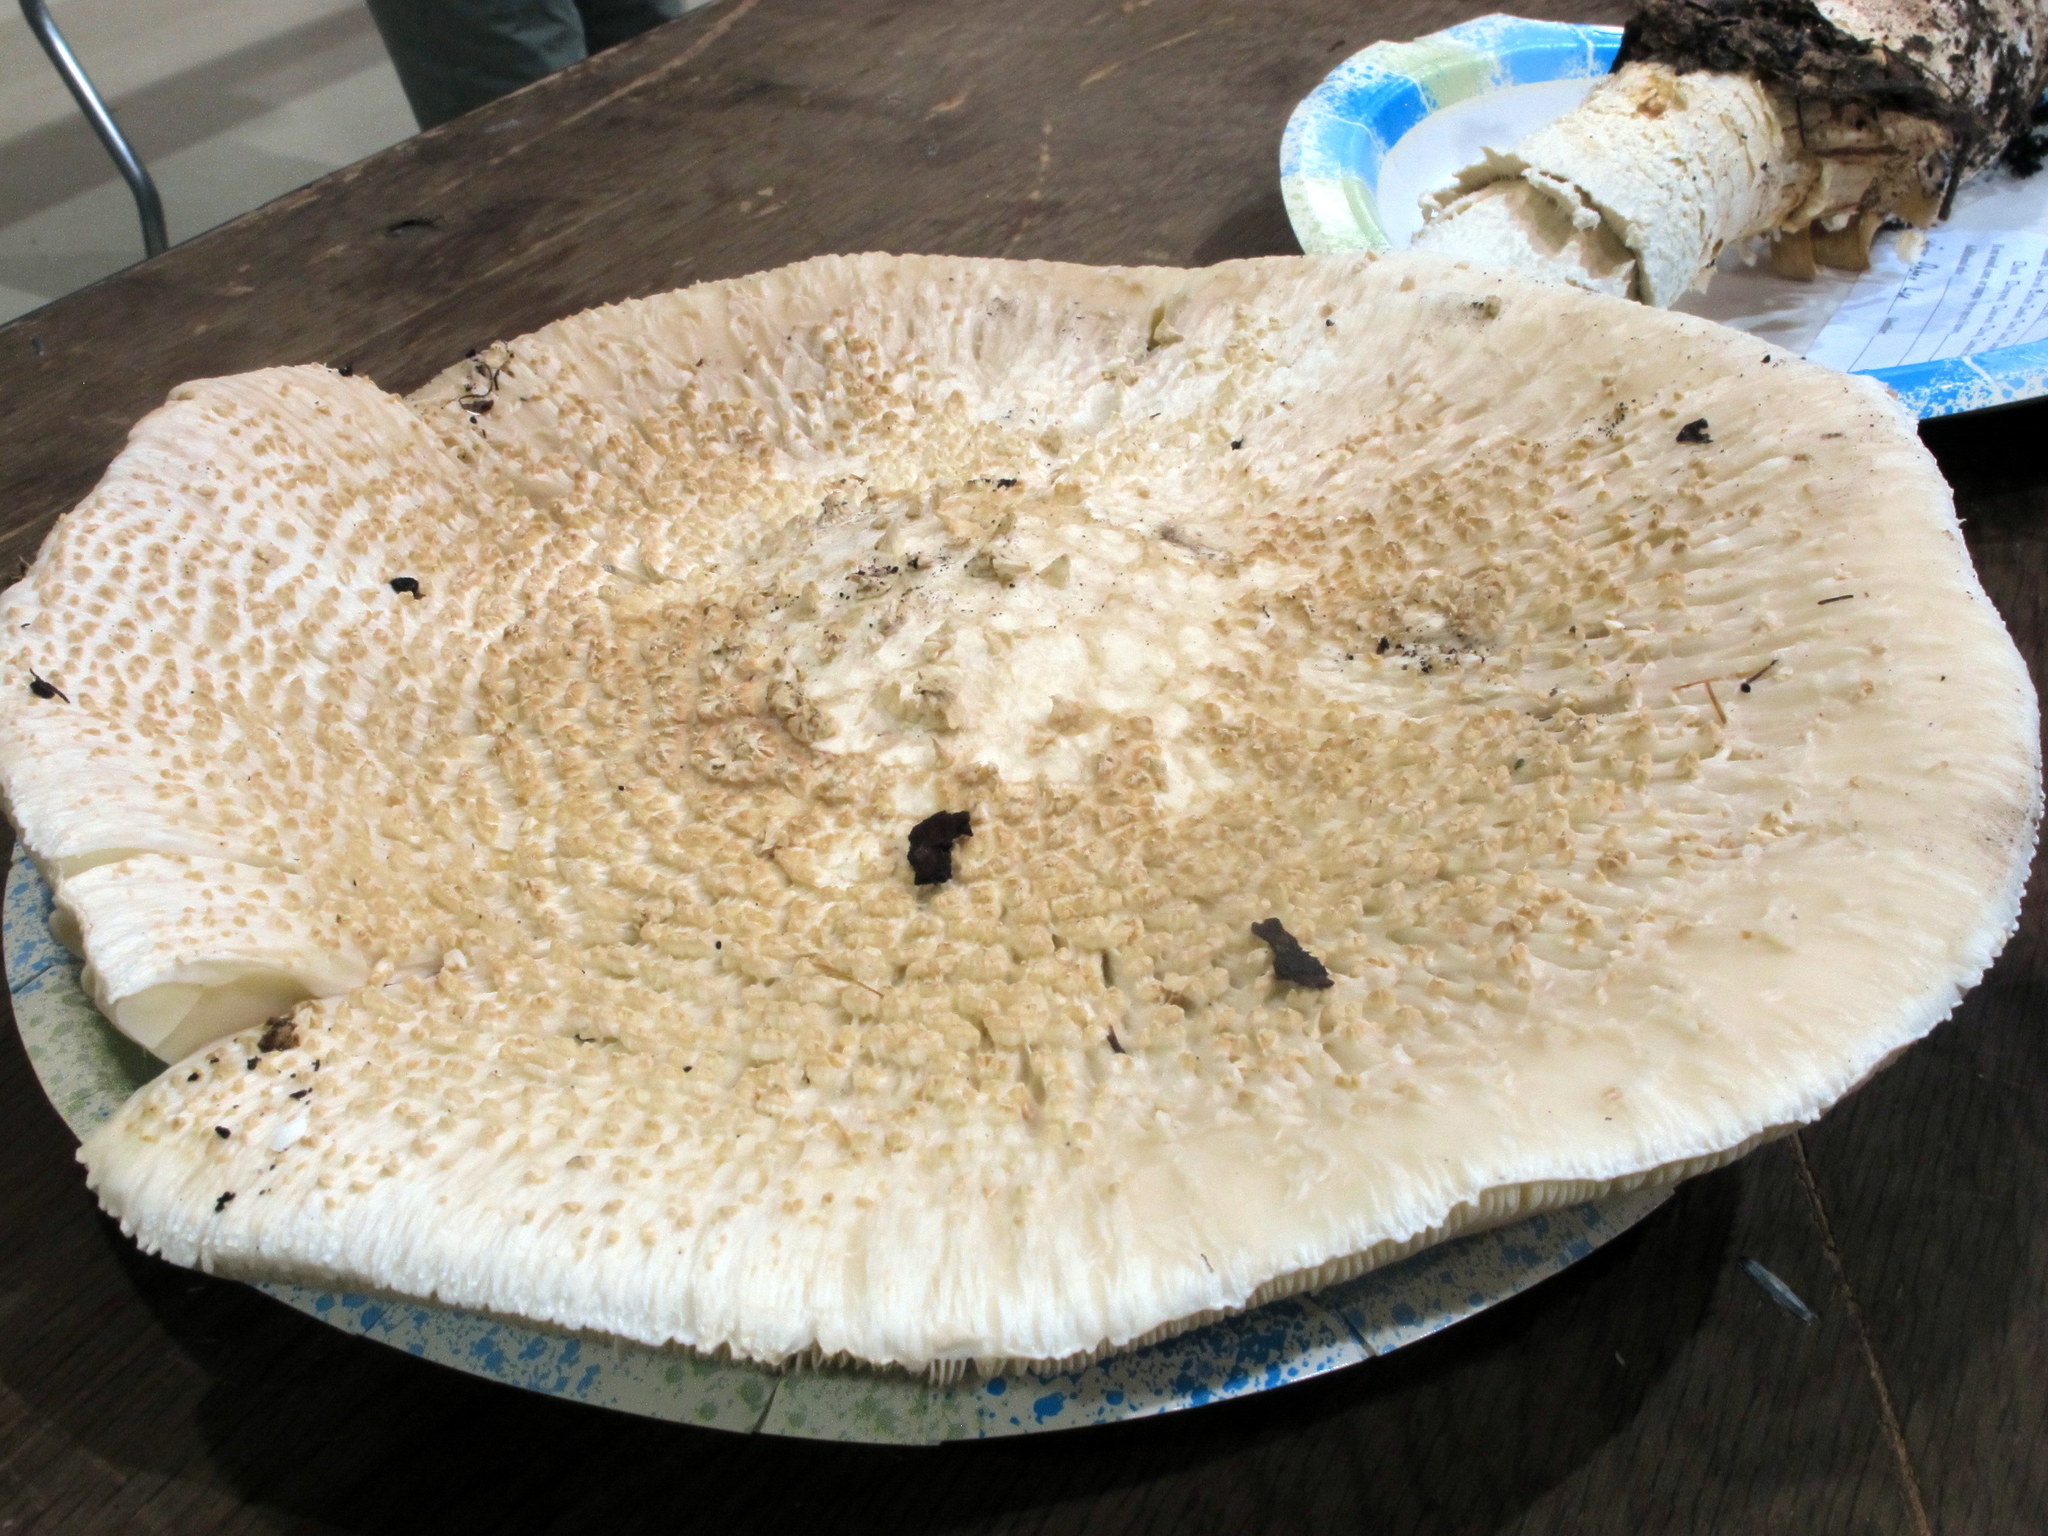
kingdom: Fungi
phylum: Basidiomycota
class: Agaricomycetes
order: Agaricales
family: Amanitaceae
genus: Amanita
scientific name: Amanita ravenelii
